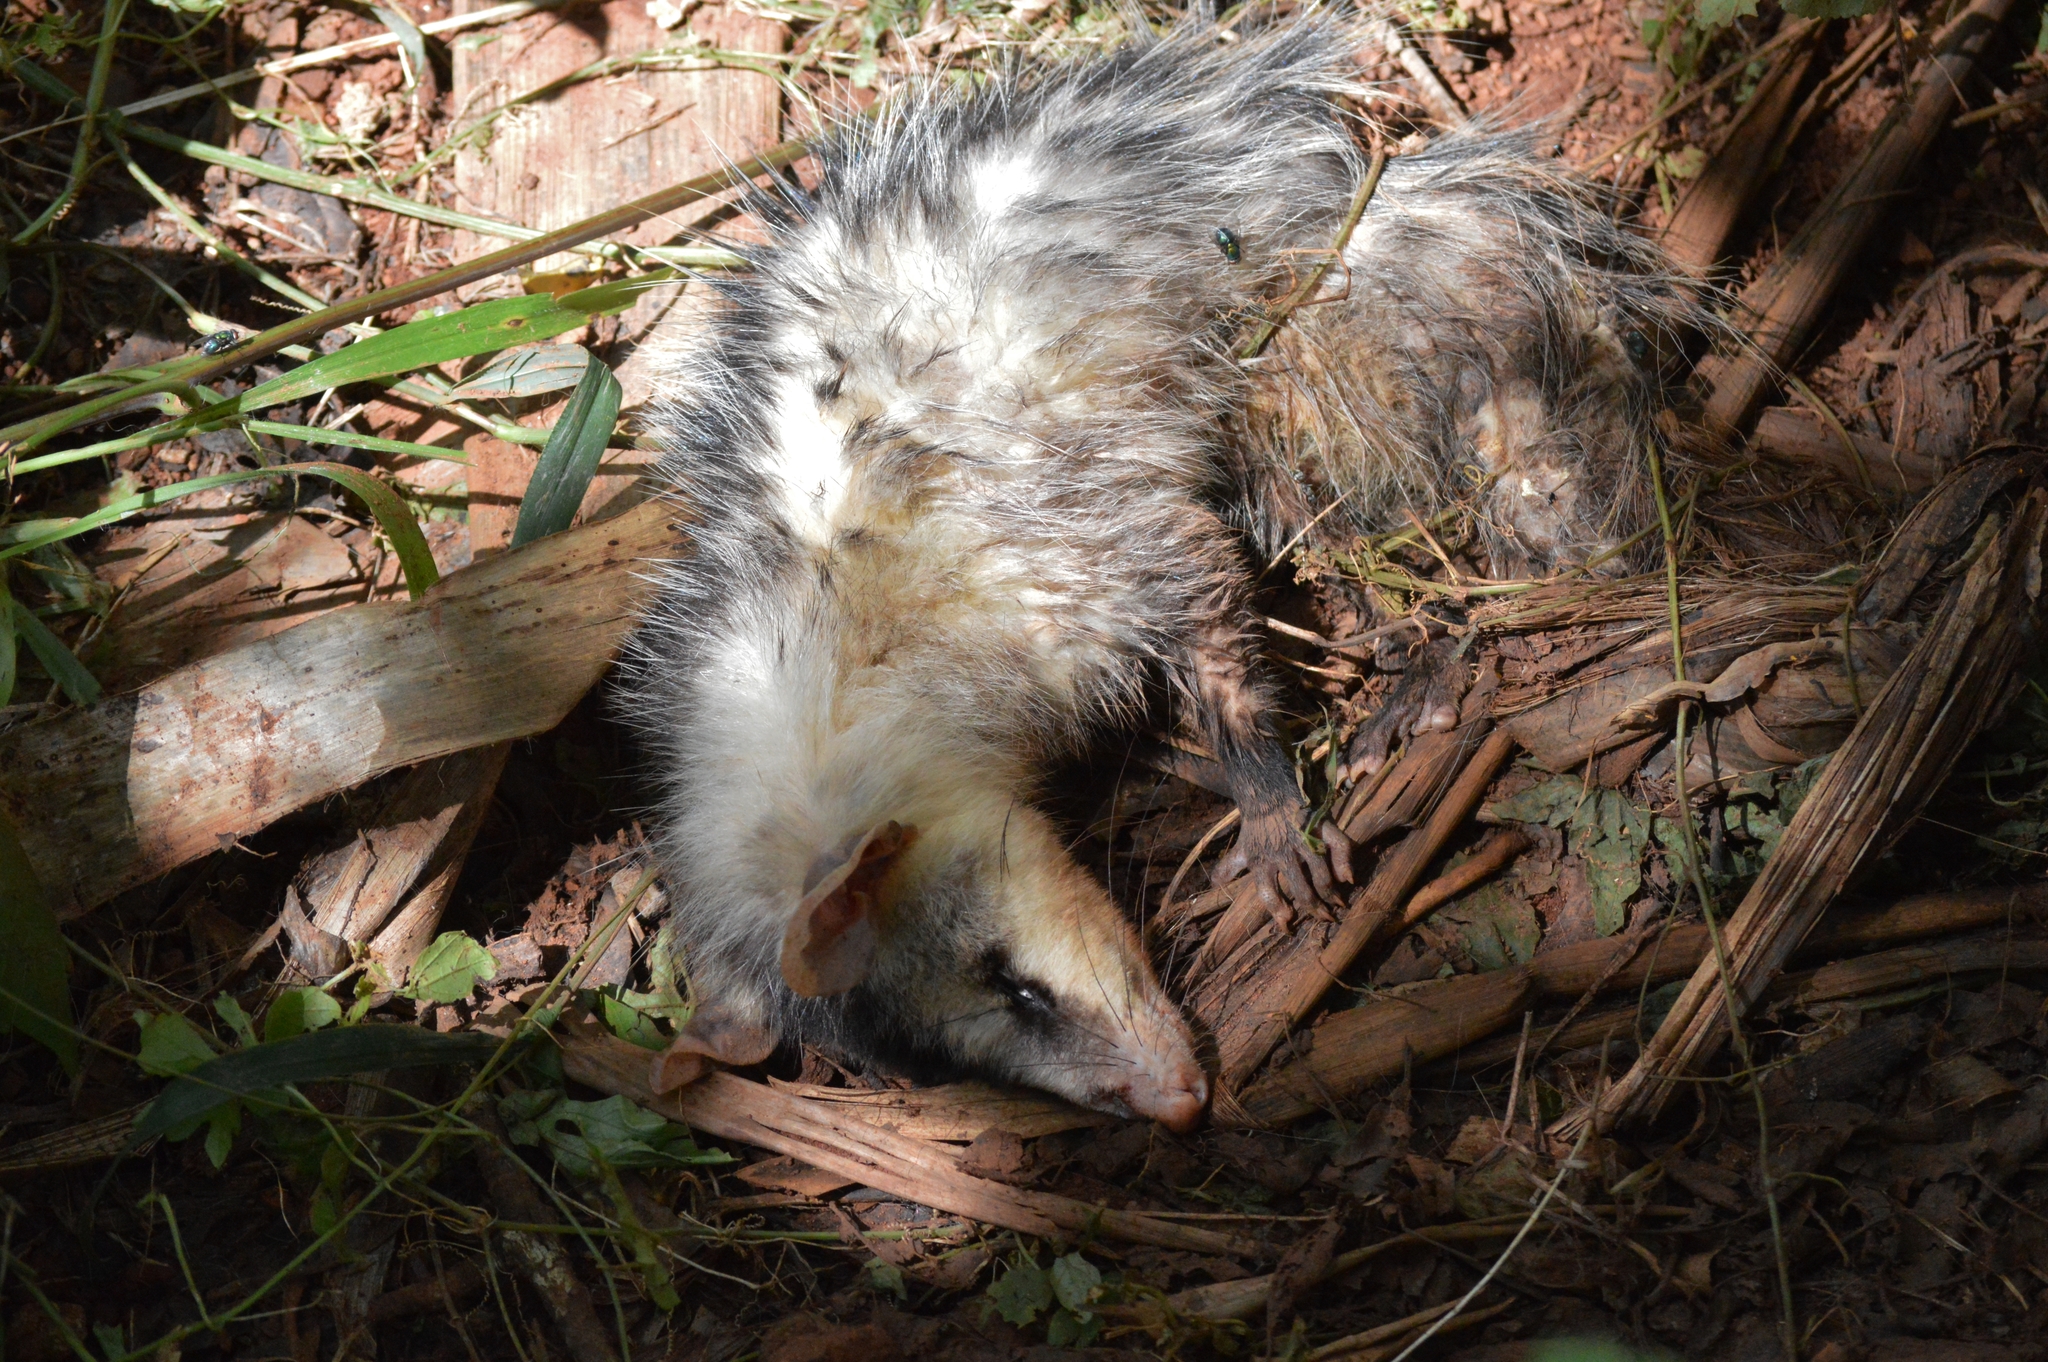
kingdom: Animalia
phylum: Chordata
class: Mammalia
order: Didelphimorphia
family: Didelphidae
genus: Didelphis
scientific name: Didelphis albiventris
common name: White-eared opossum
